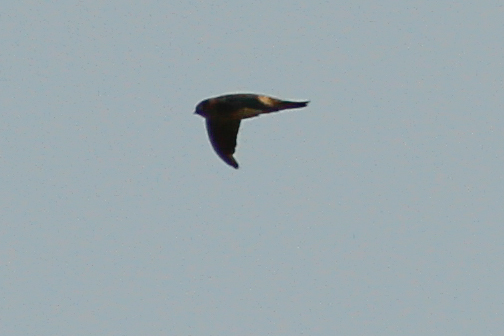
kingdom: Animalia
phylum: Chordata
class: Aves
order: Apodiformes
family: Apodidae
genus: Aerodramus
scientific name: Aerodramus germani
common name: Germain's swiftlet
